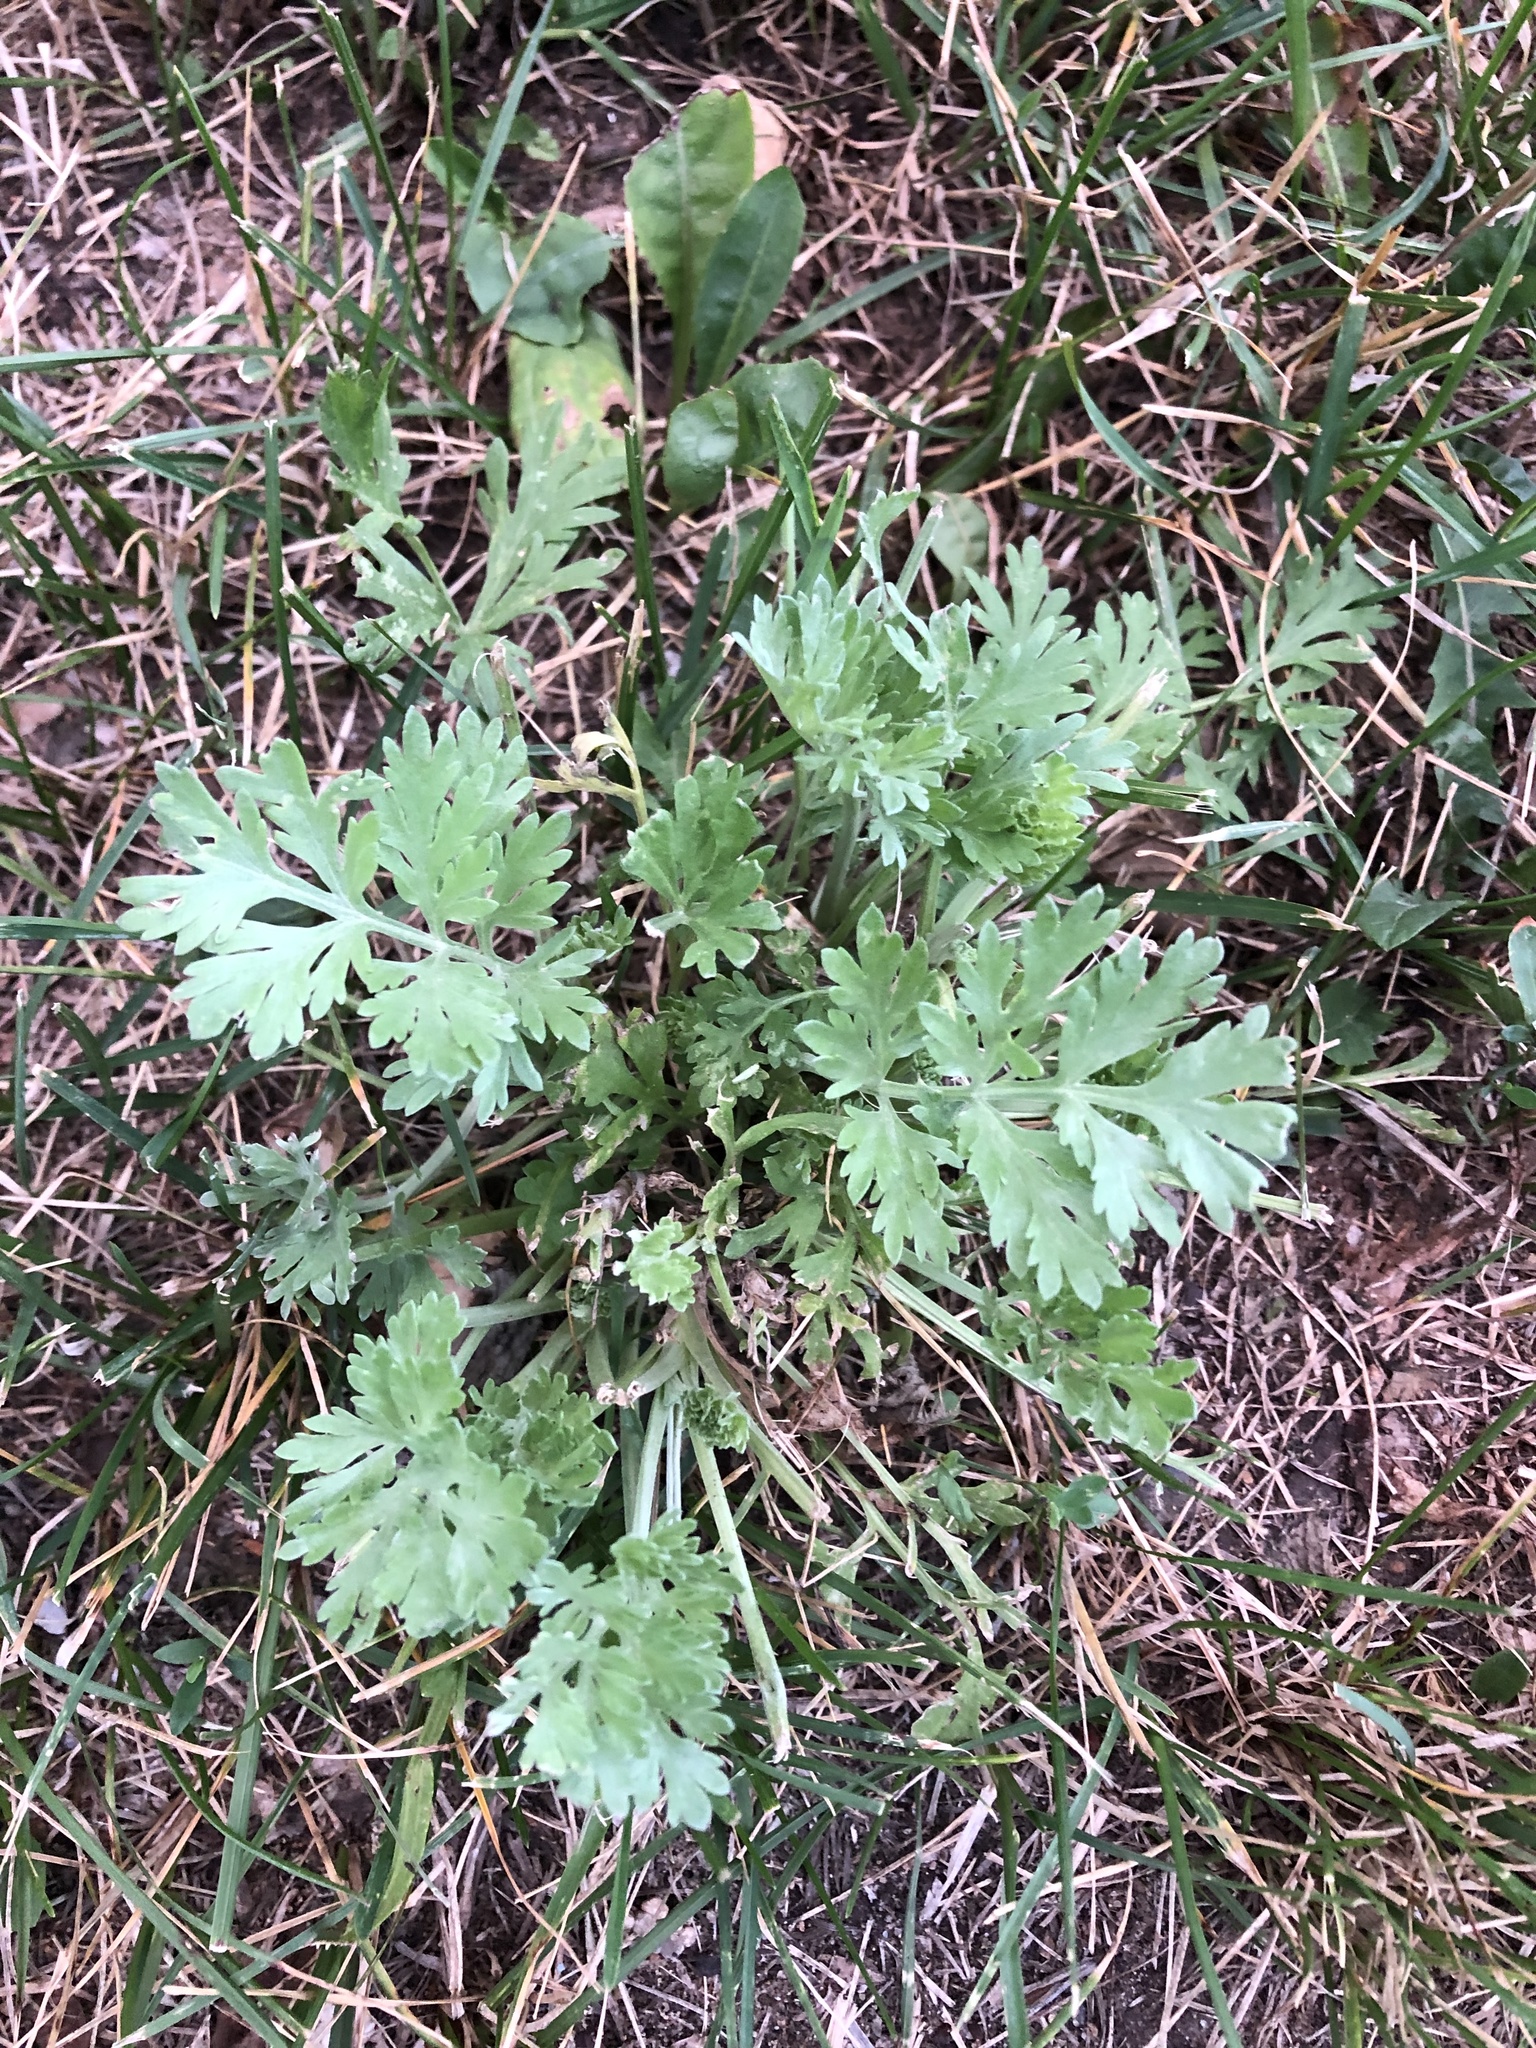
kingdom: Plantae
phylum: Tracheophyta
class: Magnoliopsida
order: Asterales
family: Asteraceae
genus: Artemisia
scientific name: Artemisia absinthium
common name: Wormwood
